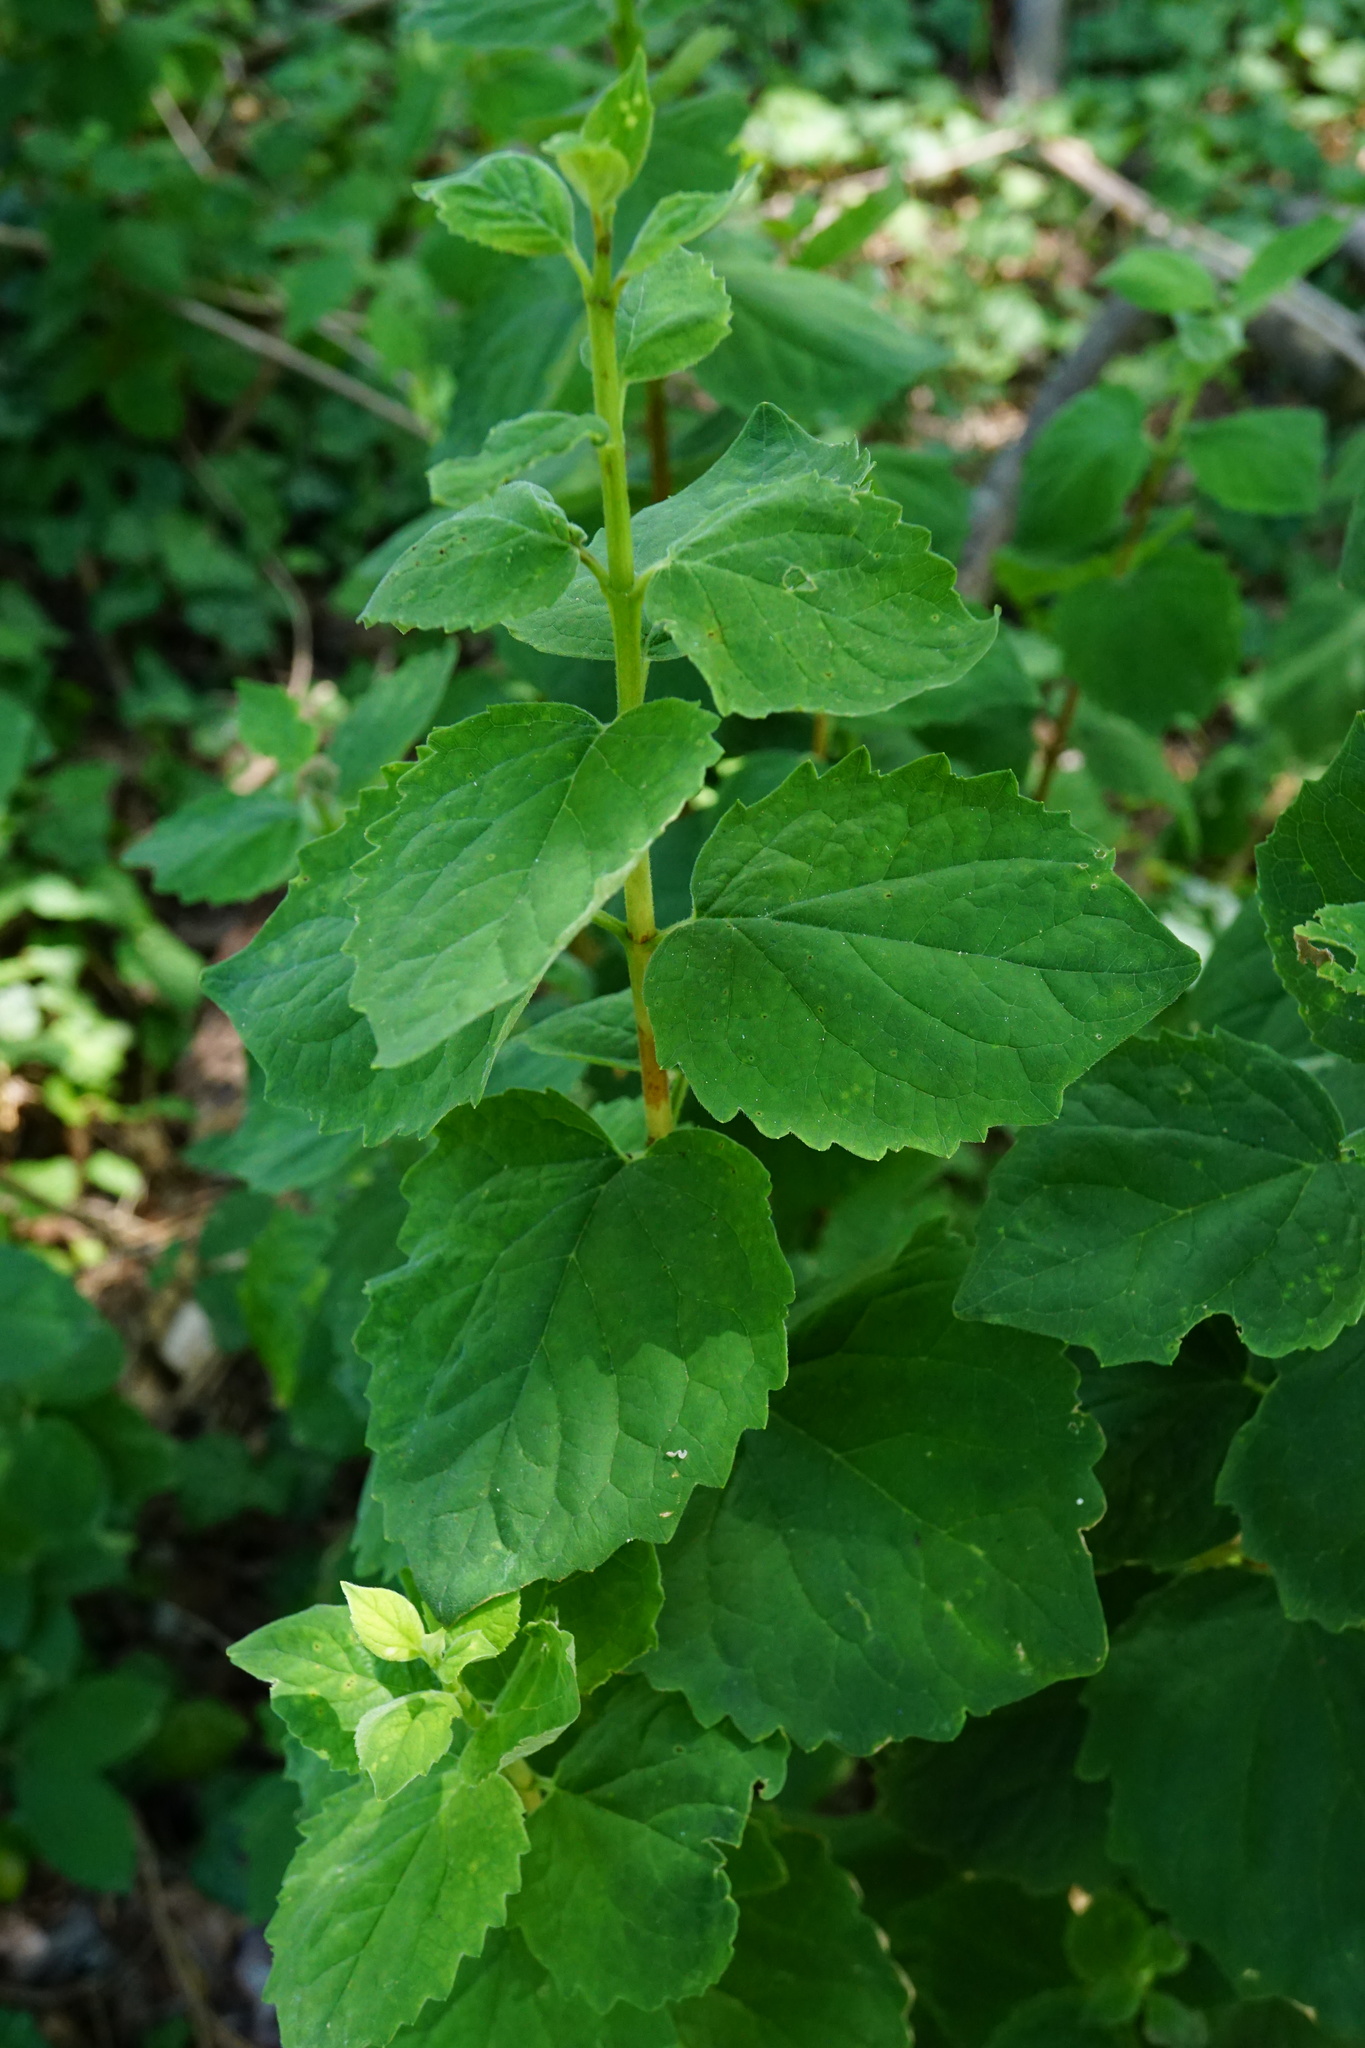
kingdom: Plantae
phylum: Tracheophyta
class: Magnoliopsida
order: Cornales
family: Hydrangeaceae
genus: Philadelphus
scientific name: Philadelphus coronarius
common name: Mock orange
